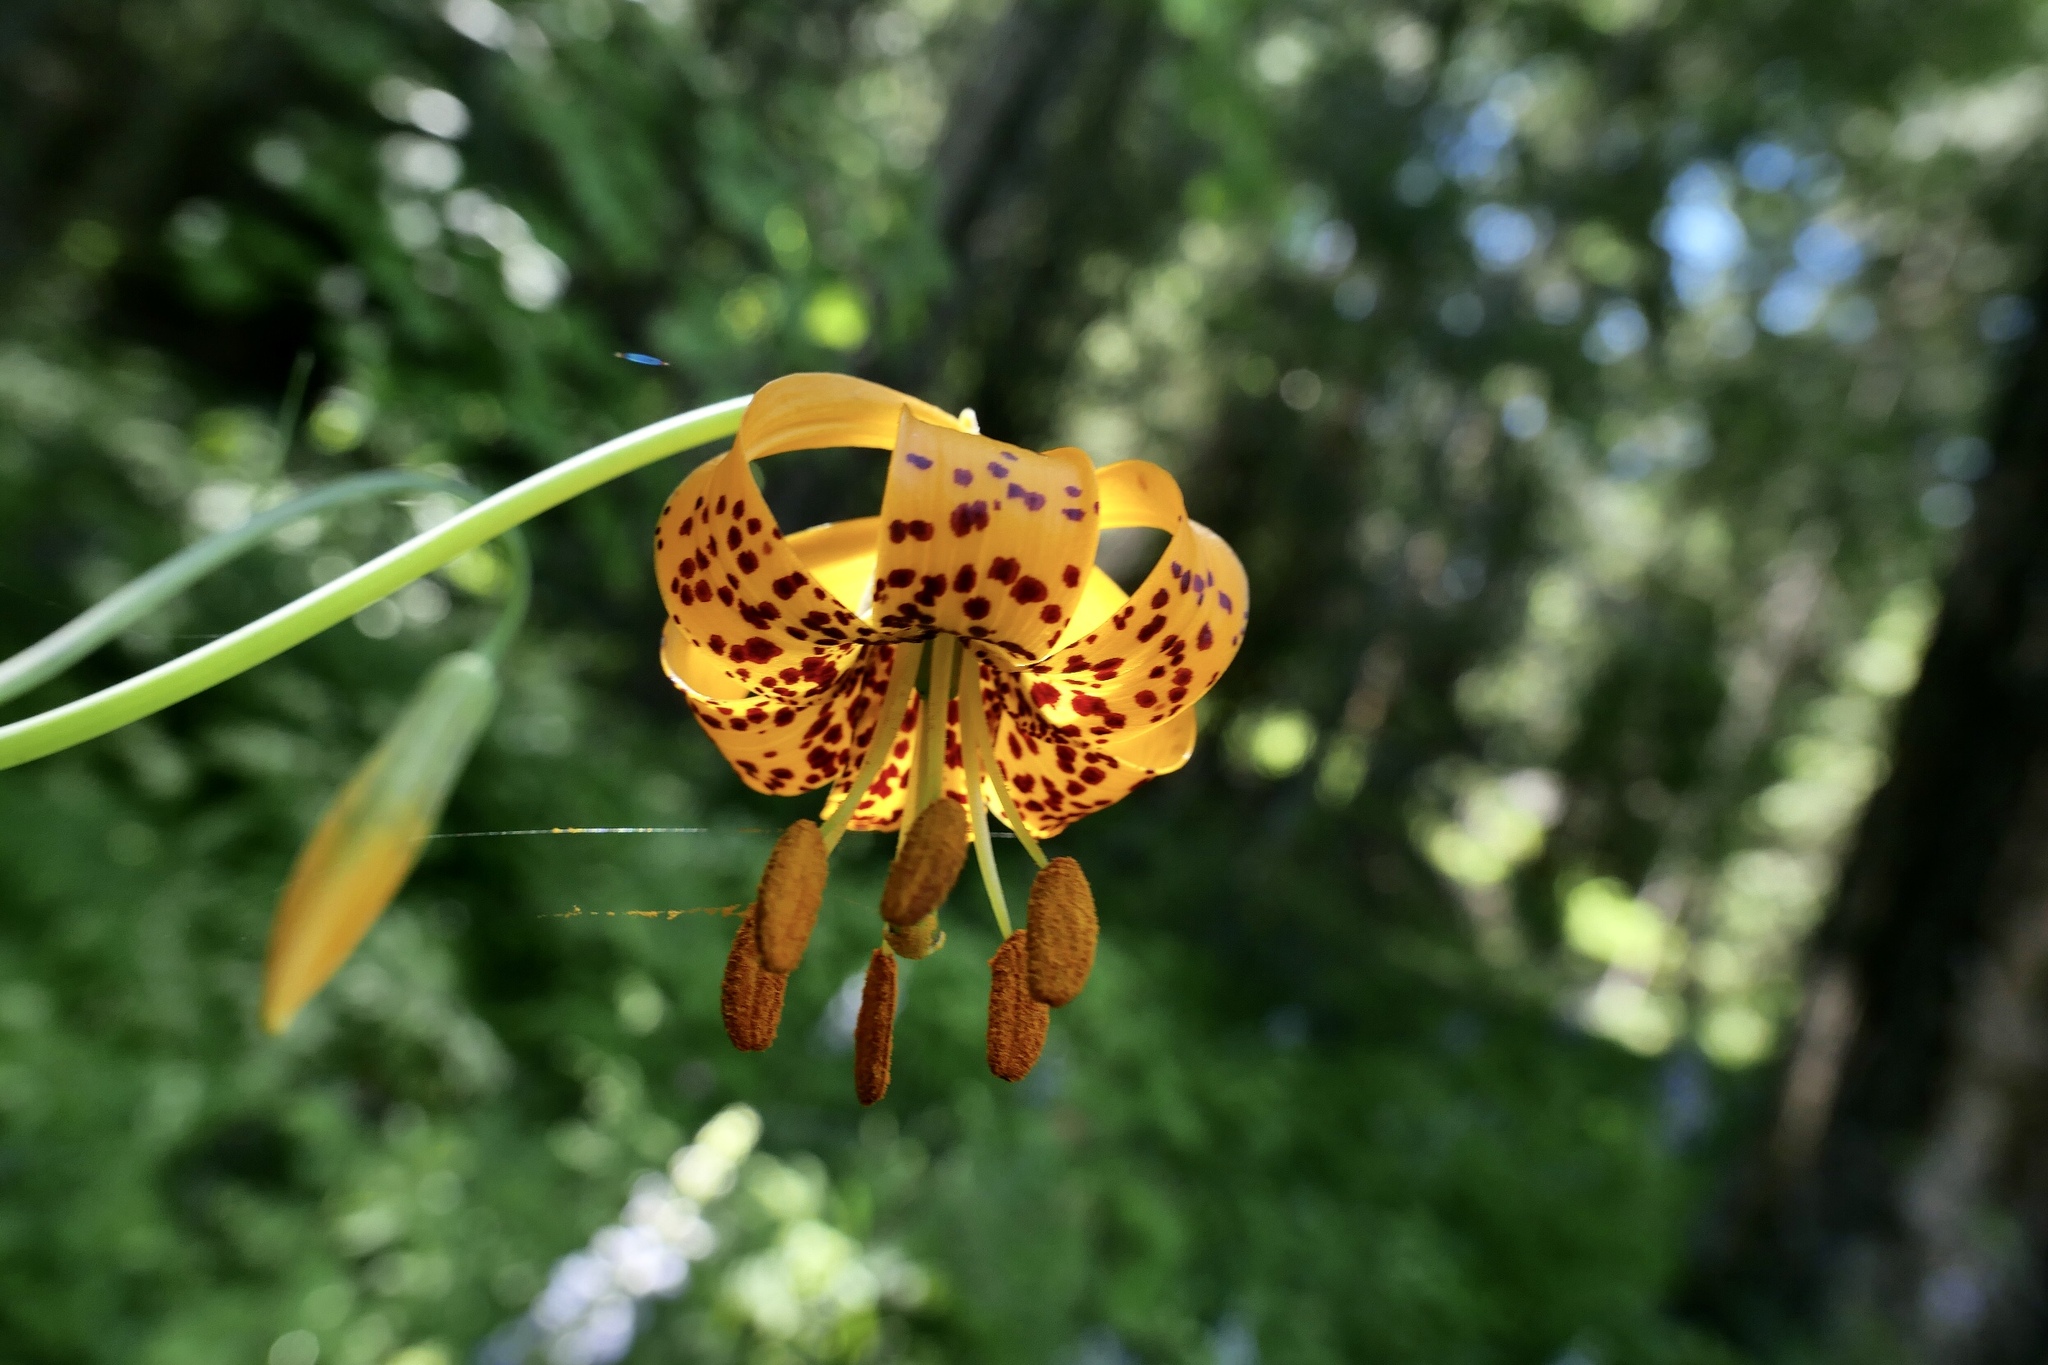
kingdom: Plantae
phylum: Tracheophyta
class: Liliopsida
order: Liliales
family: Liliaceae
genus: Lilium
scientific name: Lilium columbianum
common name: Columbia lily
